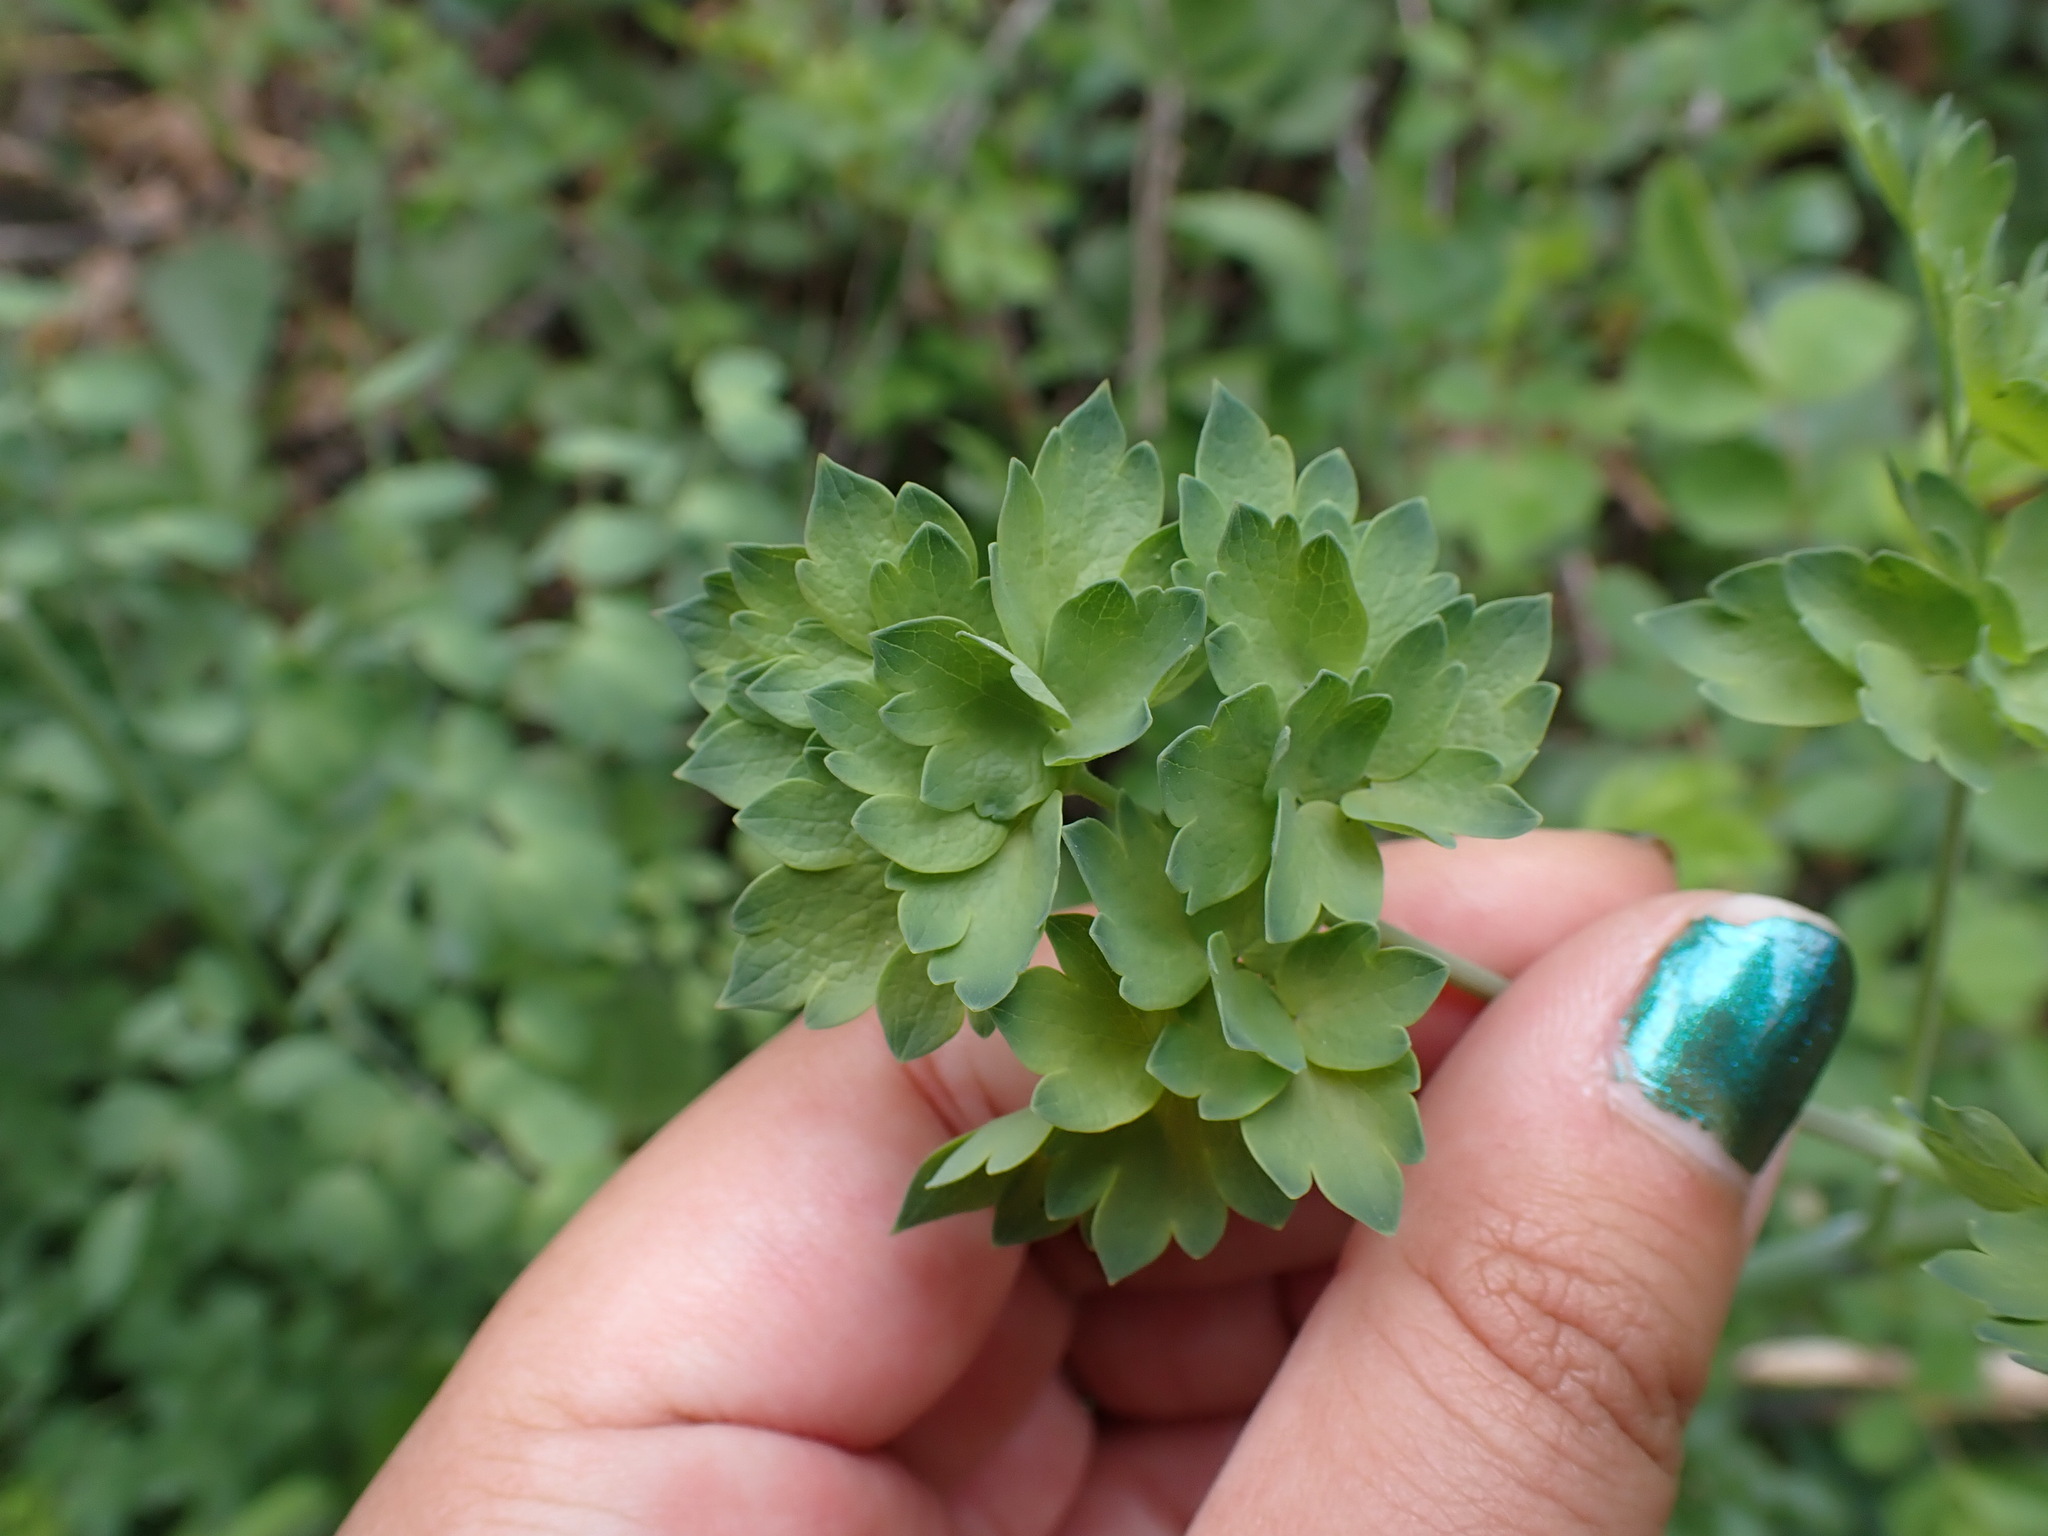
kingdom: Plantae
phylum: Tracheophyta
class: Magnoliopsida
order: Ranunculales
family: Ranunculaceae
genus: Thalictrum
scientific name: Thalictrum fendleri
